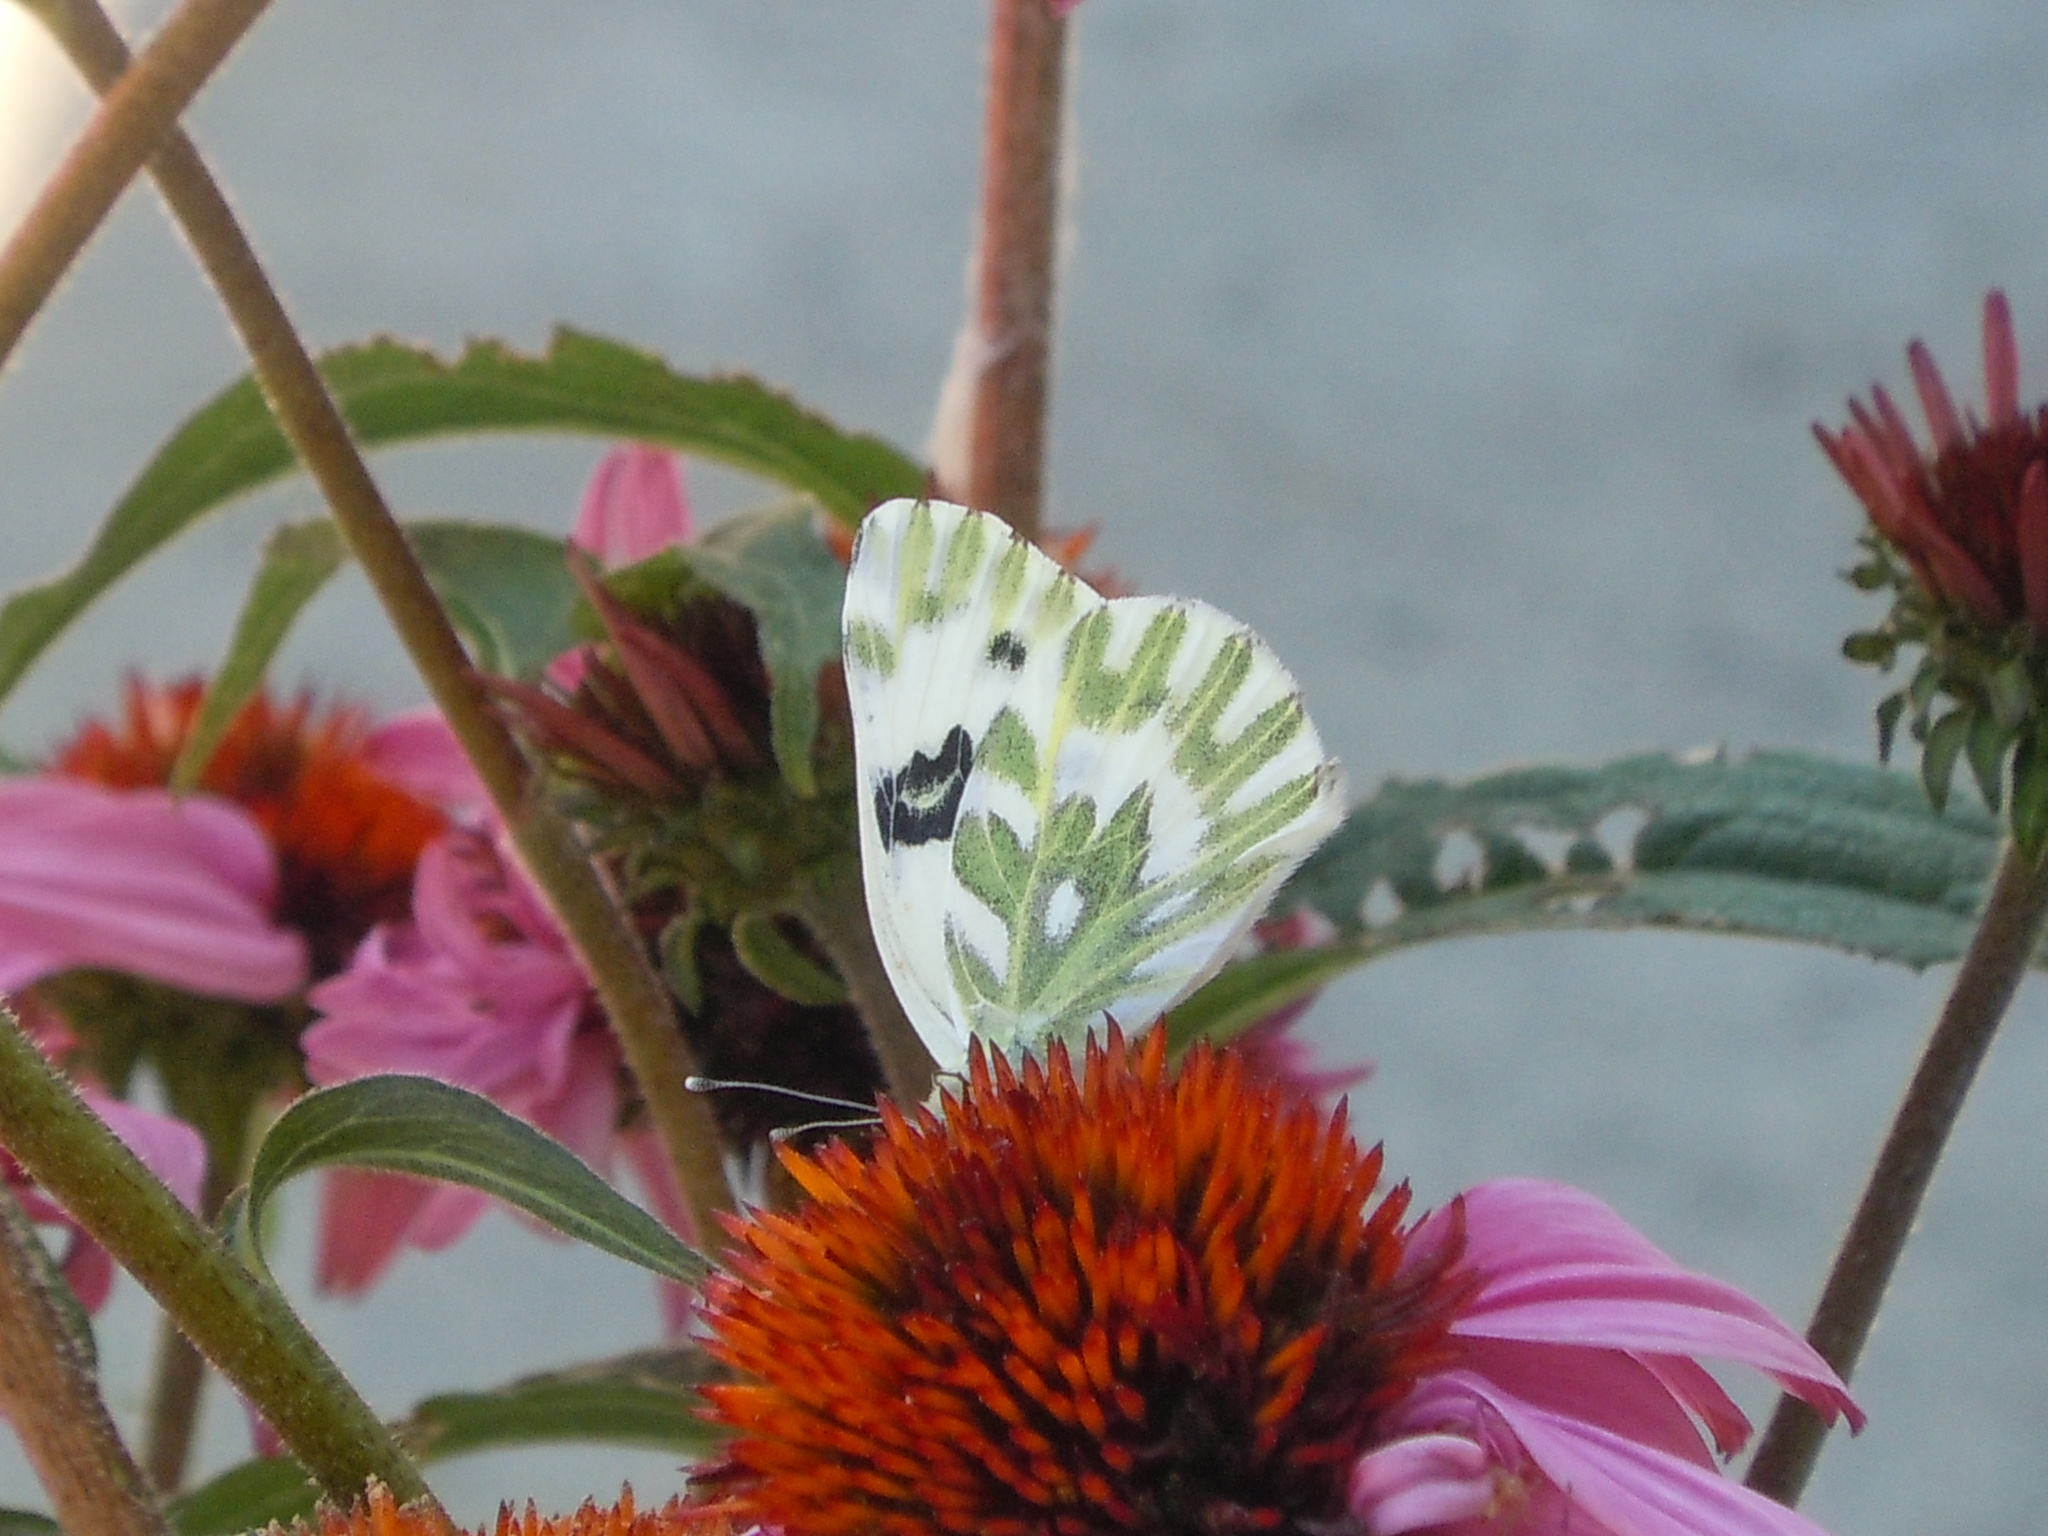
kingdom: Animalia
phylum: Arthropoda
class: Insecta
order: Lepidoptera
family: Pieridae
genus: Pontia
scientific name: Pontia beckerii
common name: Becker's white
